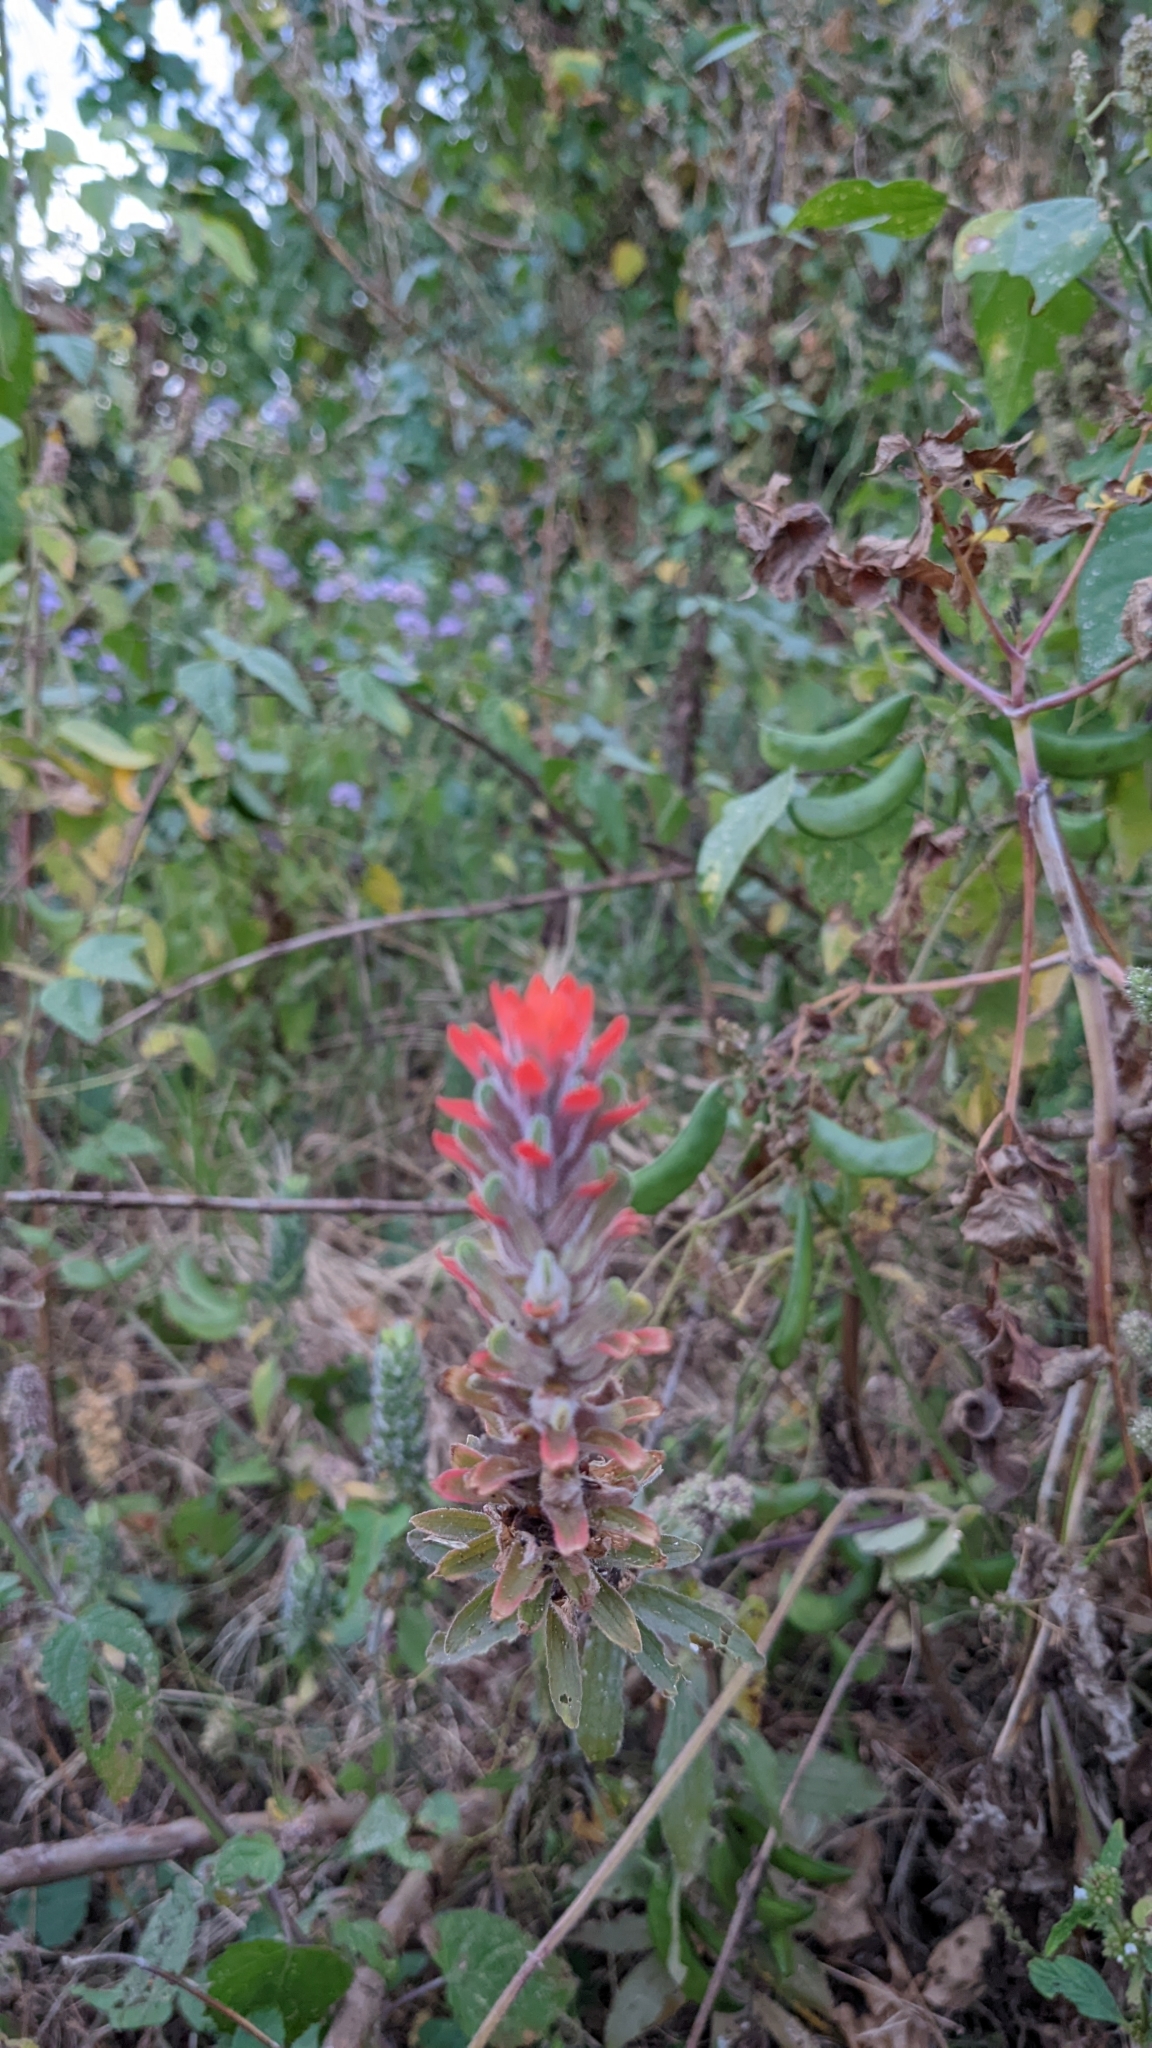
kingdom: Plantae
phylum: Tracheophyta
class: Magnoliopsida
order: Lamiales
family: Orobanchaceae
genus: Castilleja
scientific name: Castilleja arvensis
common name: Indian paintbrush
